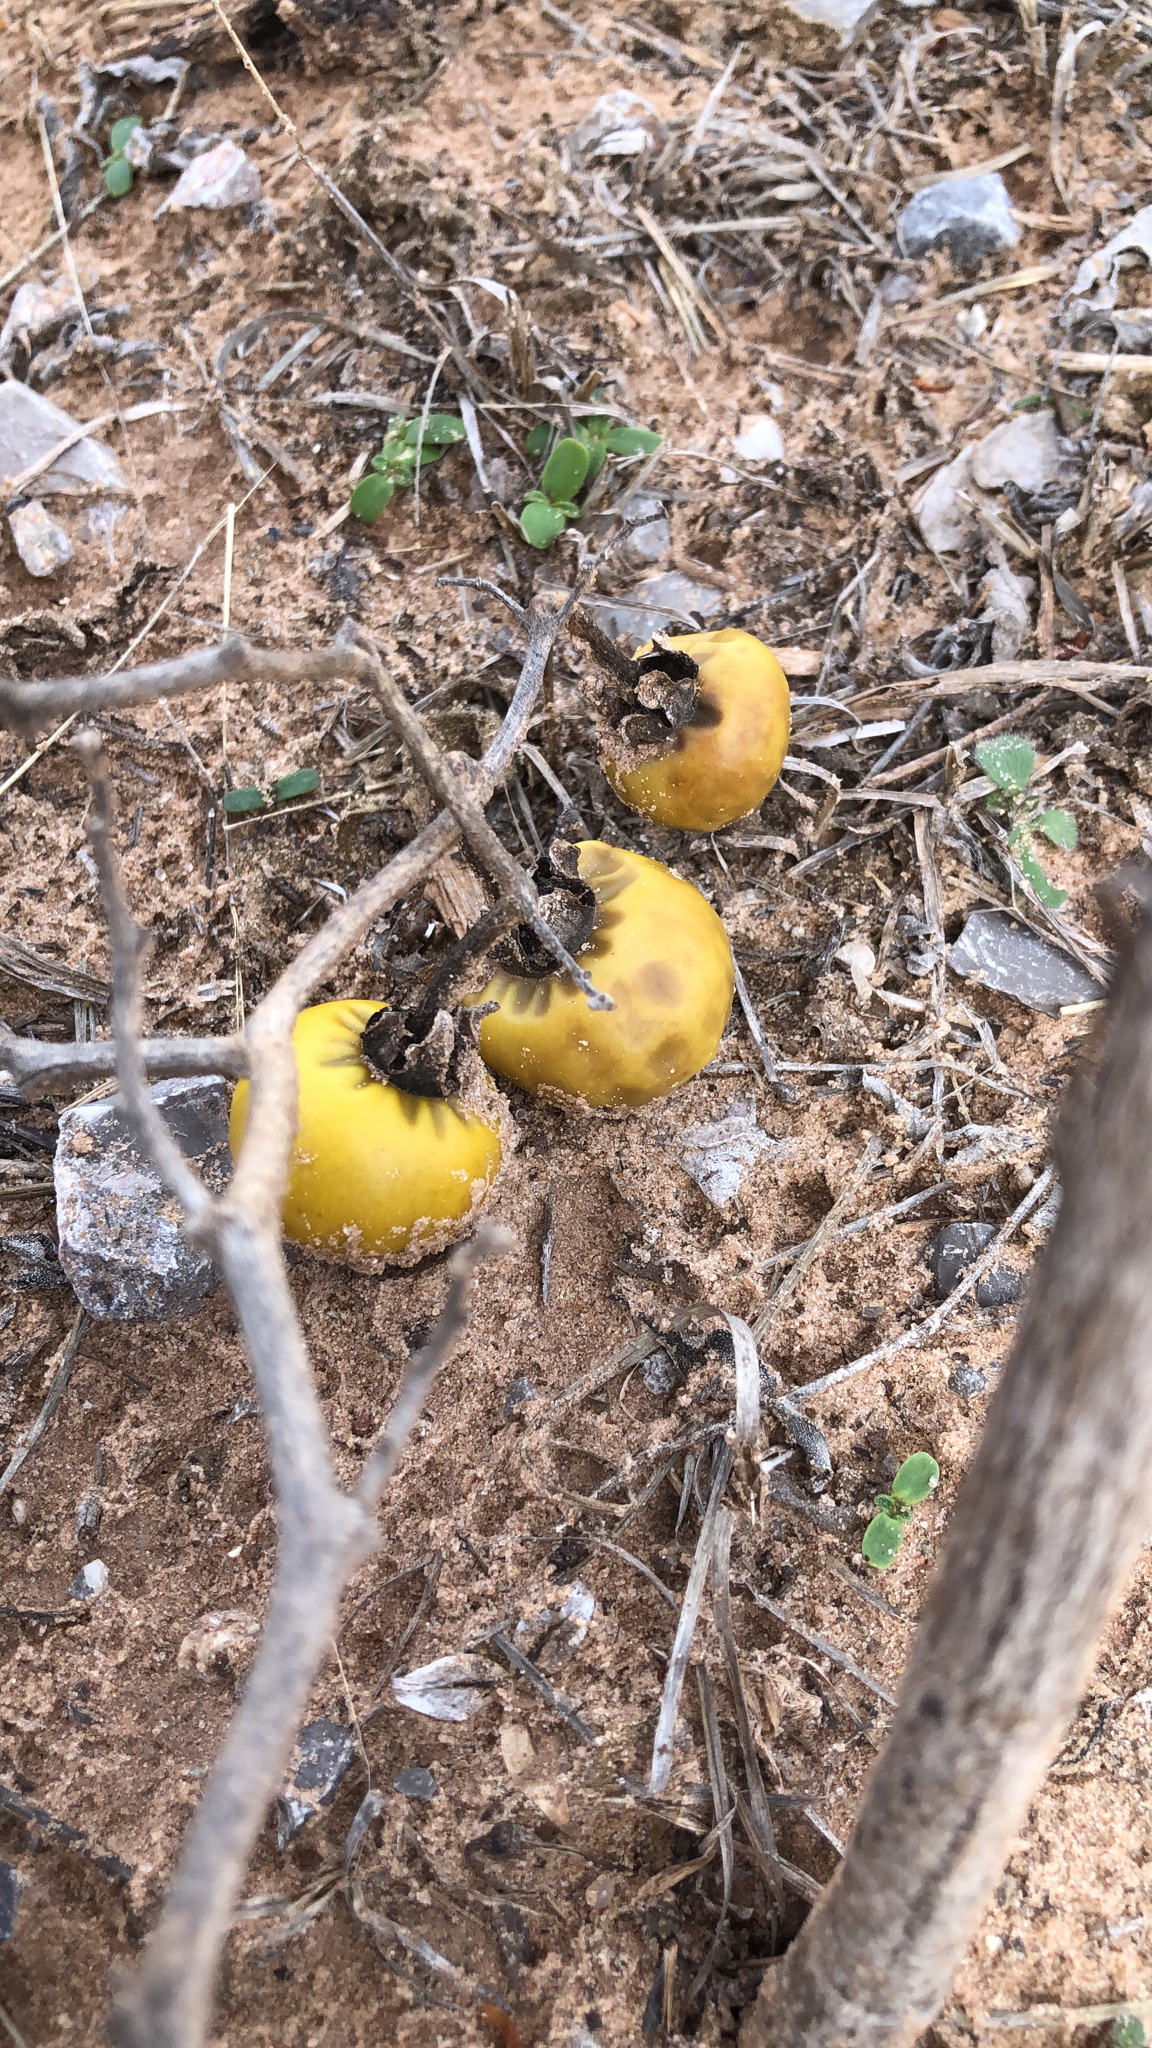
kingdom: Plantae
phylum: Tracheophyta
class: Magnoliopsida
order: Solanales
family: Solanaceae
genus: Solanum
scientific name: Solanum dimidiatum
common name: Carolina horse-nettle
